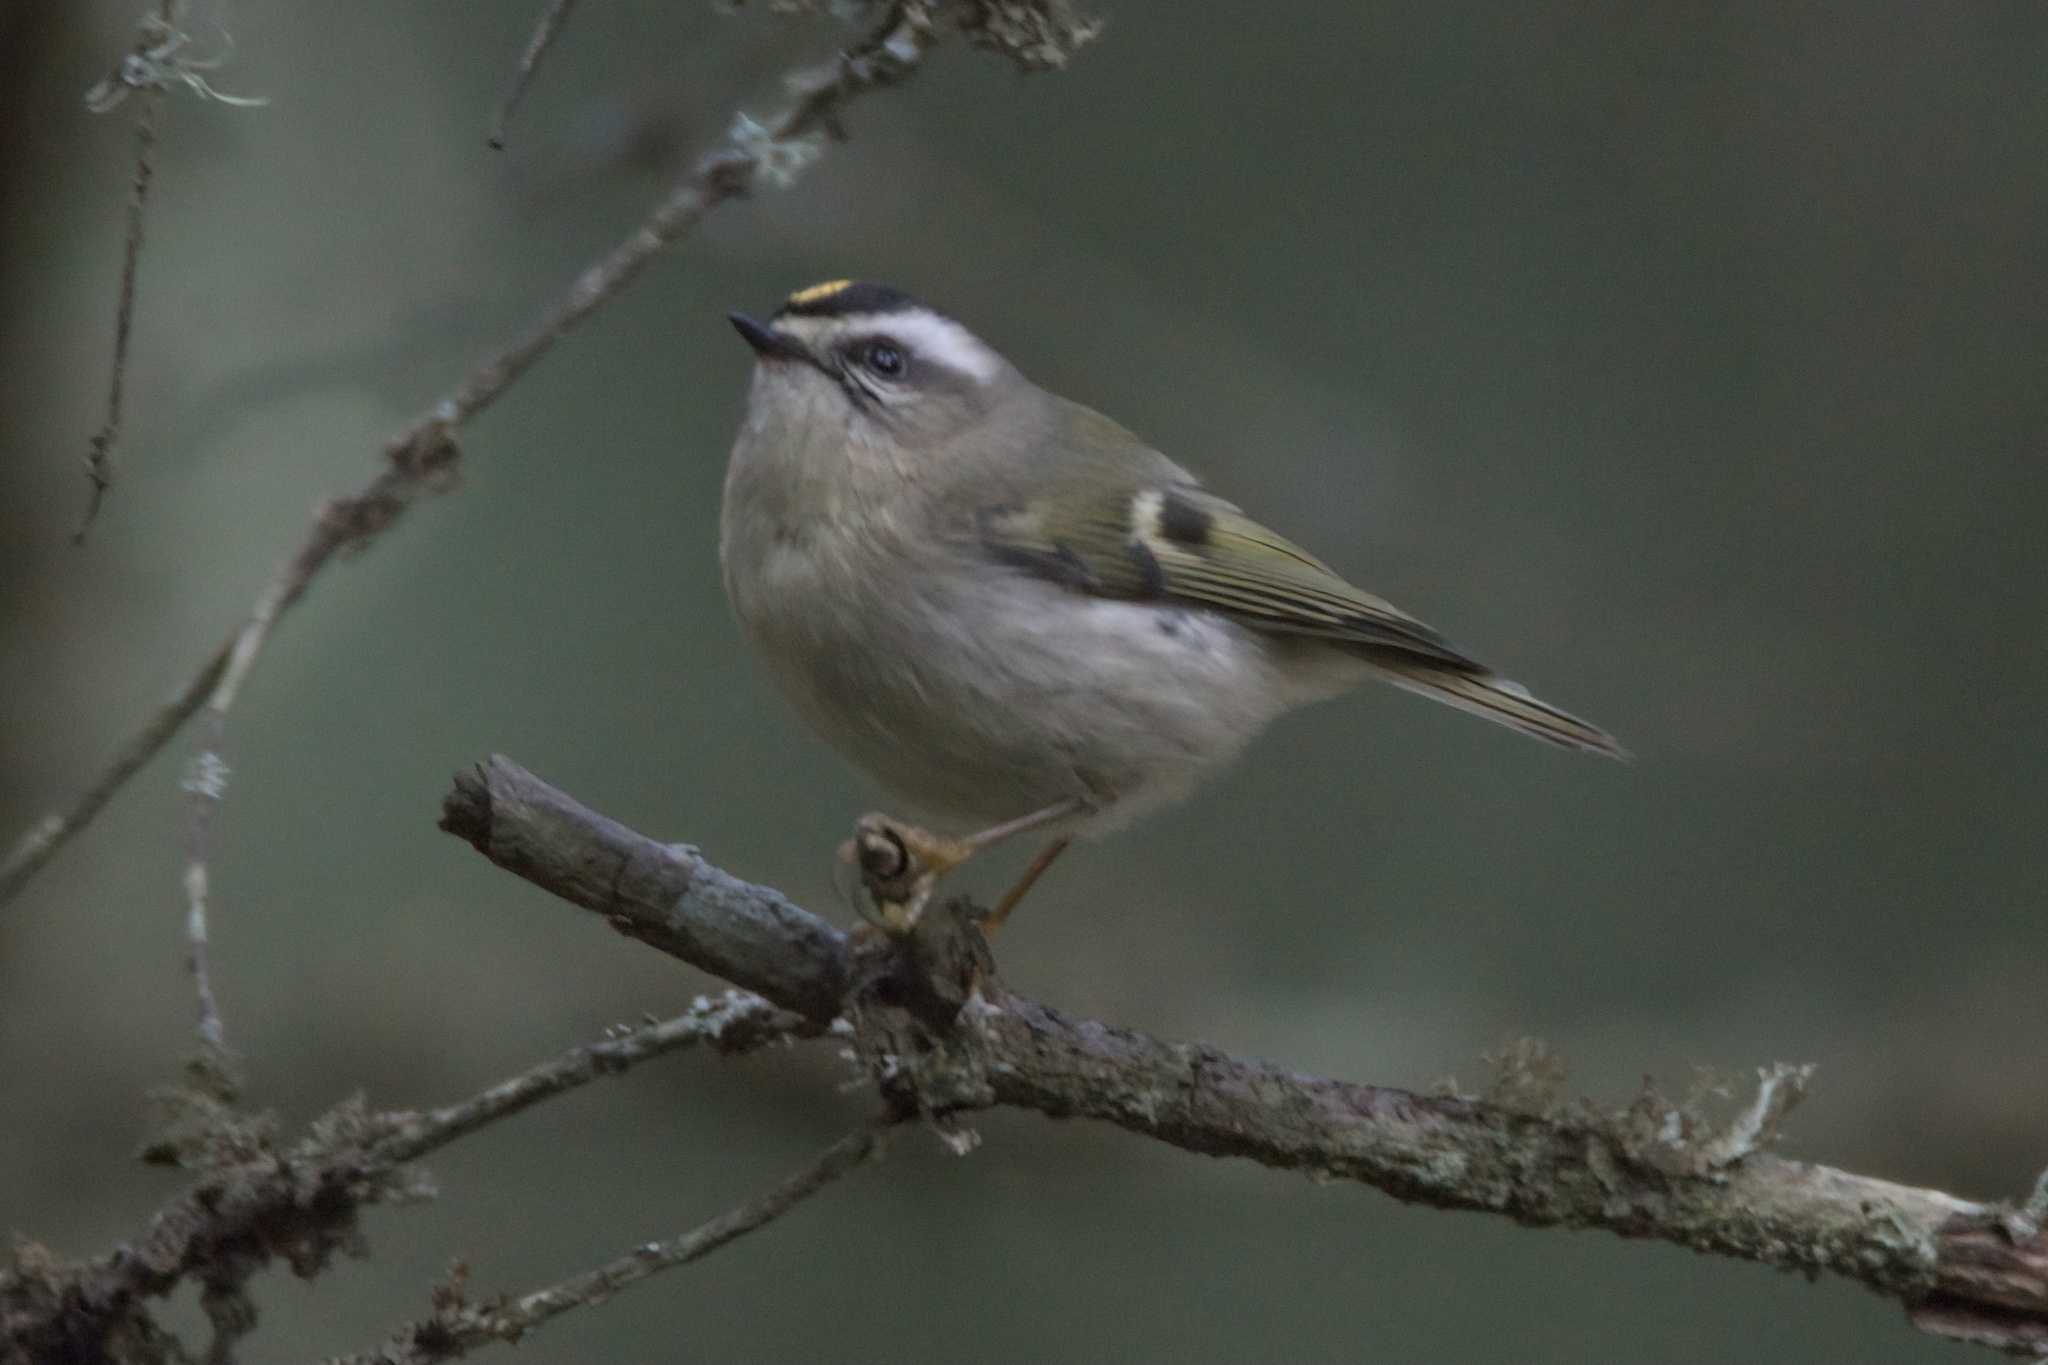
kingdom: Animalia
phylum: Chordata
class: Aves
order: Passeriformes
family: Regulidae
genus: Regulus
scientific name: Regulus satrapa
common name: Golden-crowned kinglet
